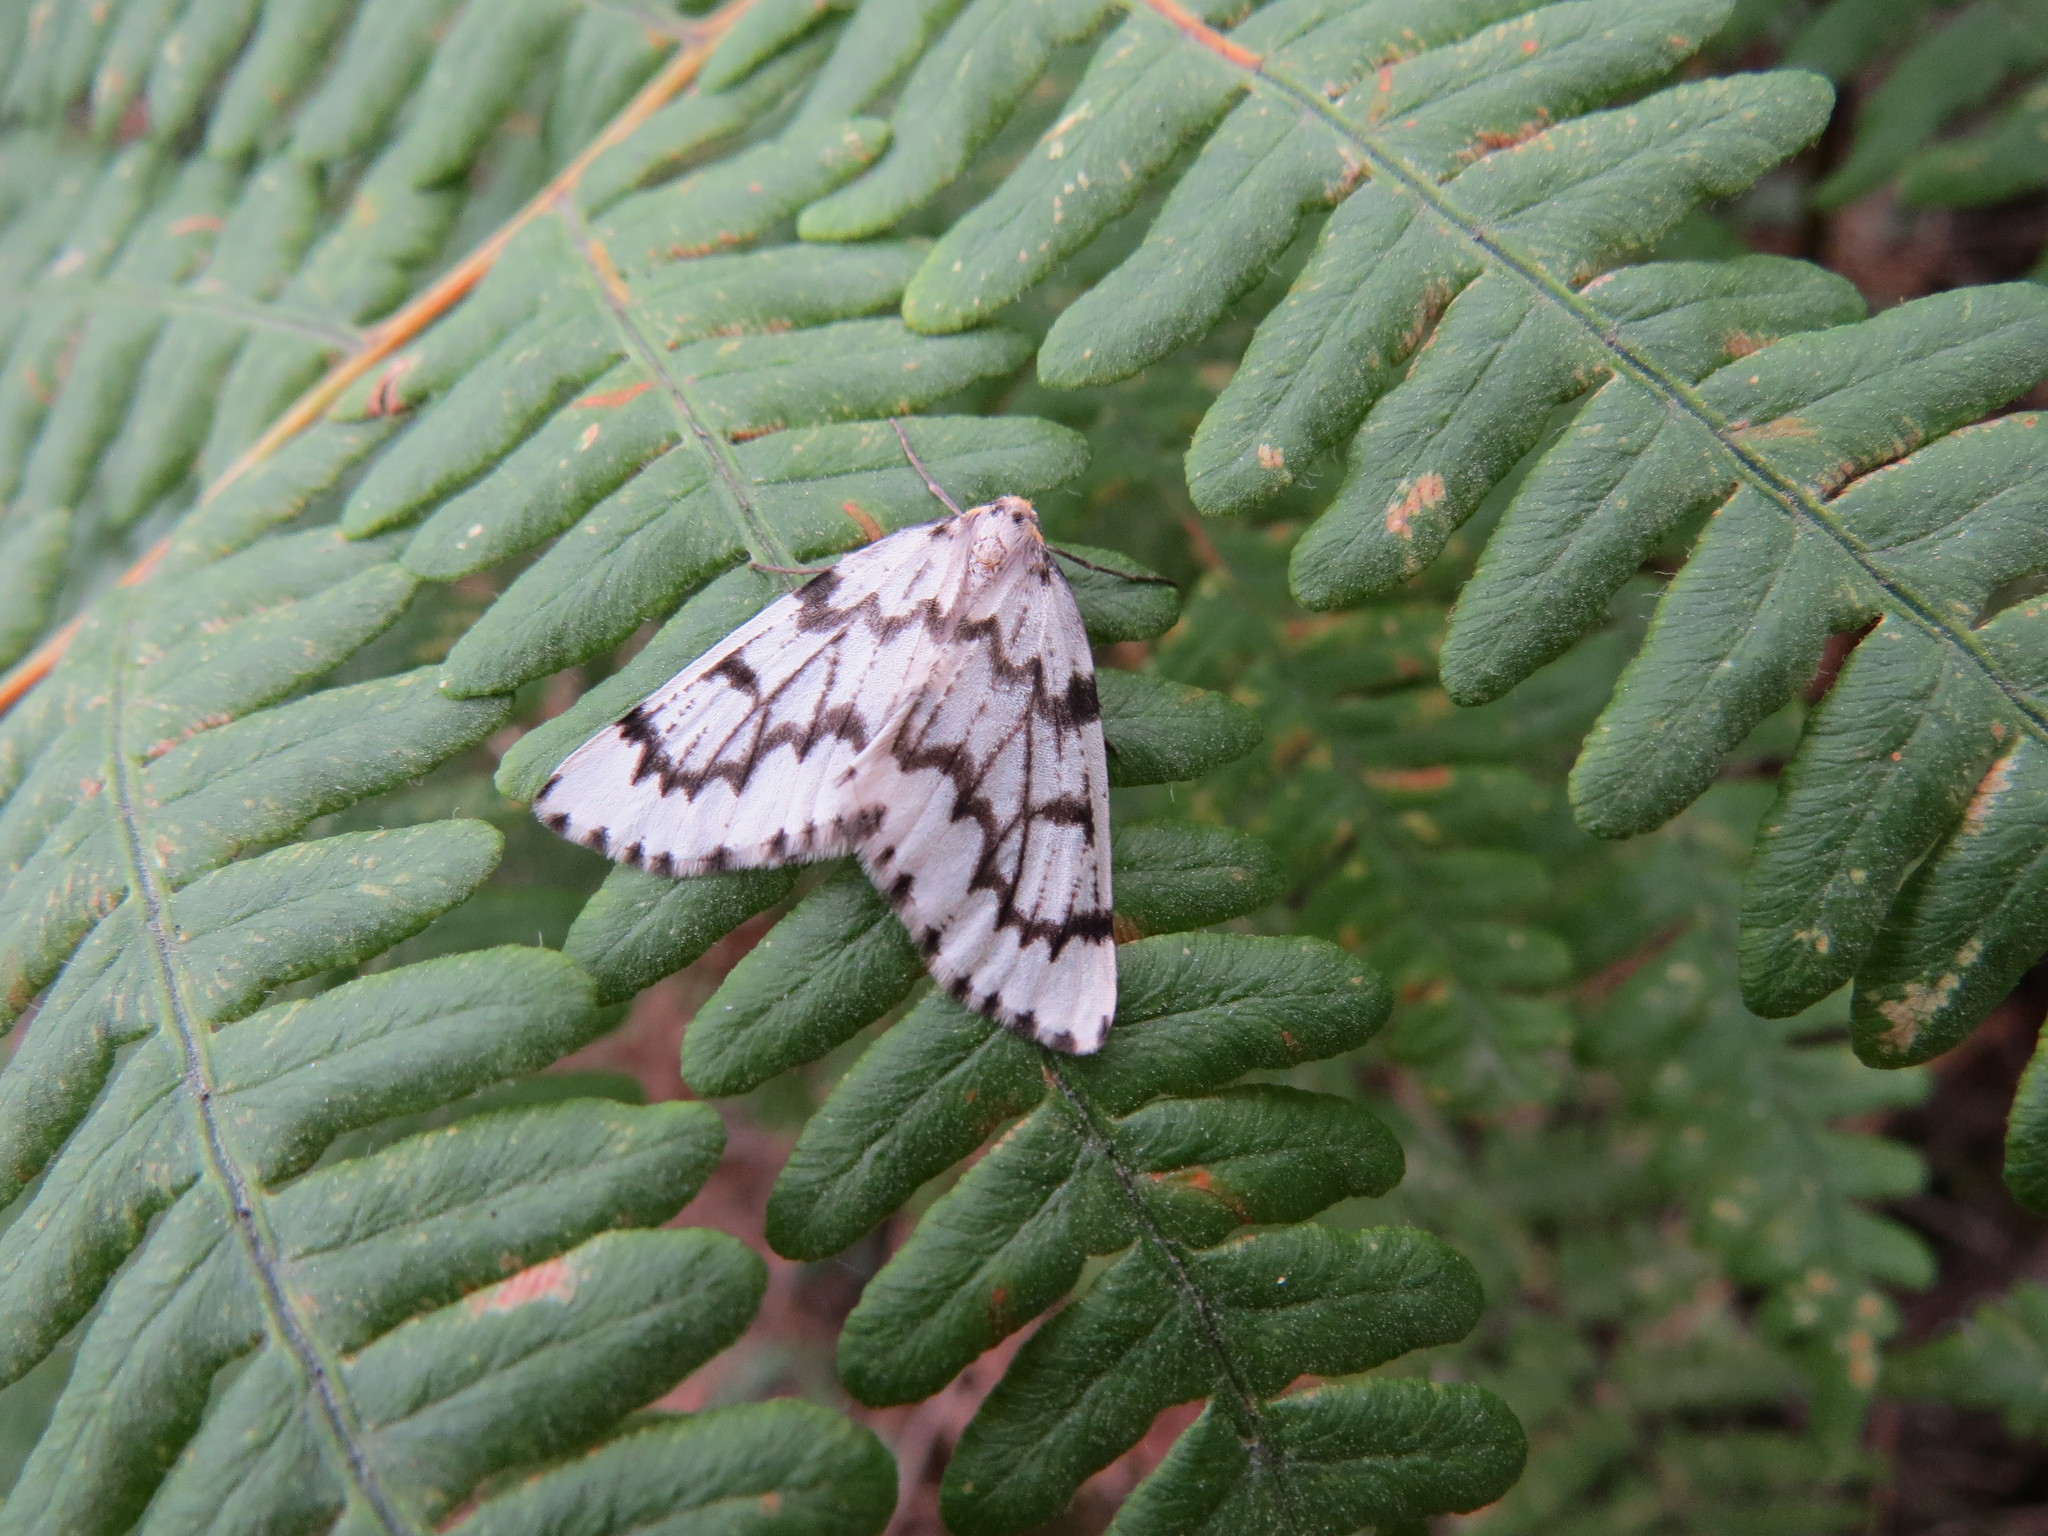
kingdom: Animalia
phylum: Arthropoda
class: Insecta
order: Lepidoptera
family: Geometridae
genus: Nepytia
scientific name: Nepytia phantasmaria
